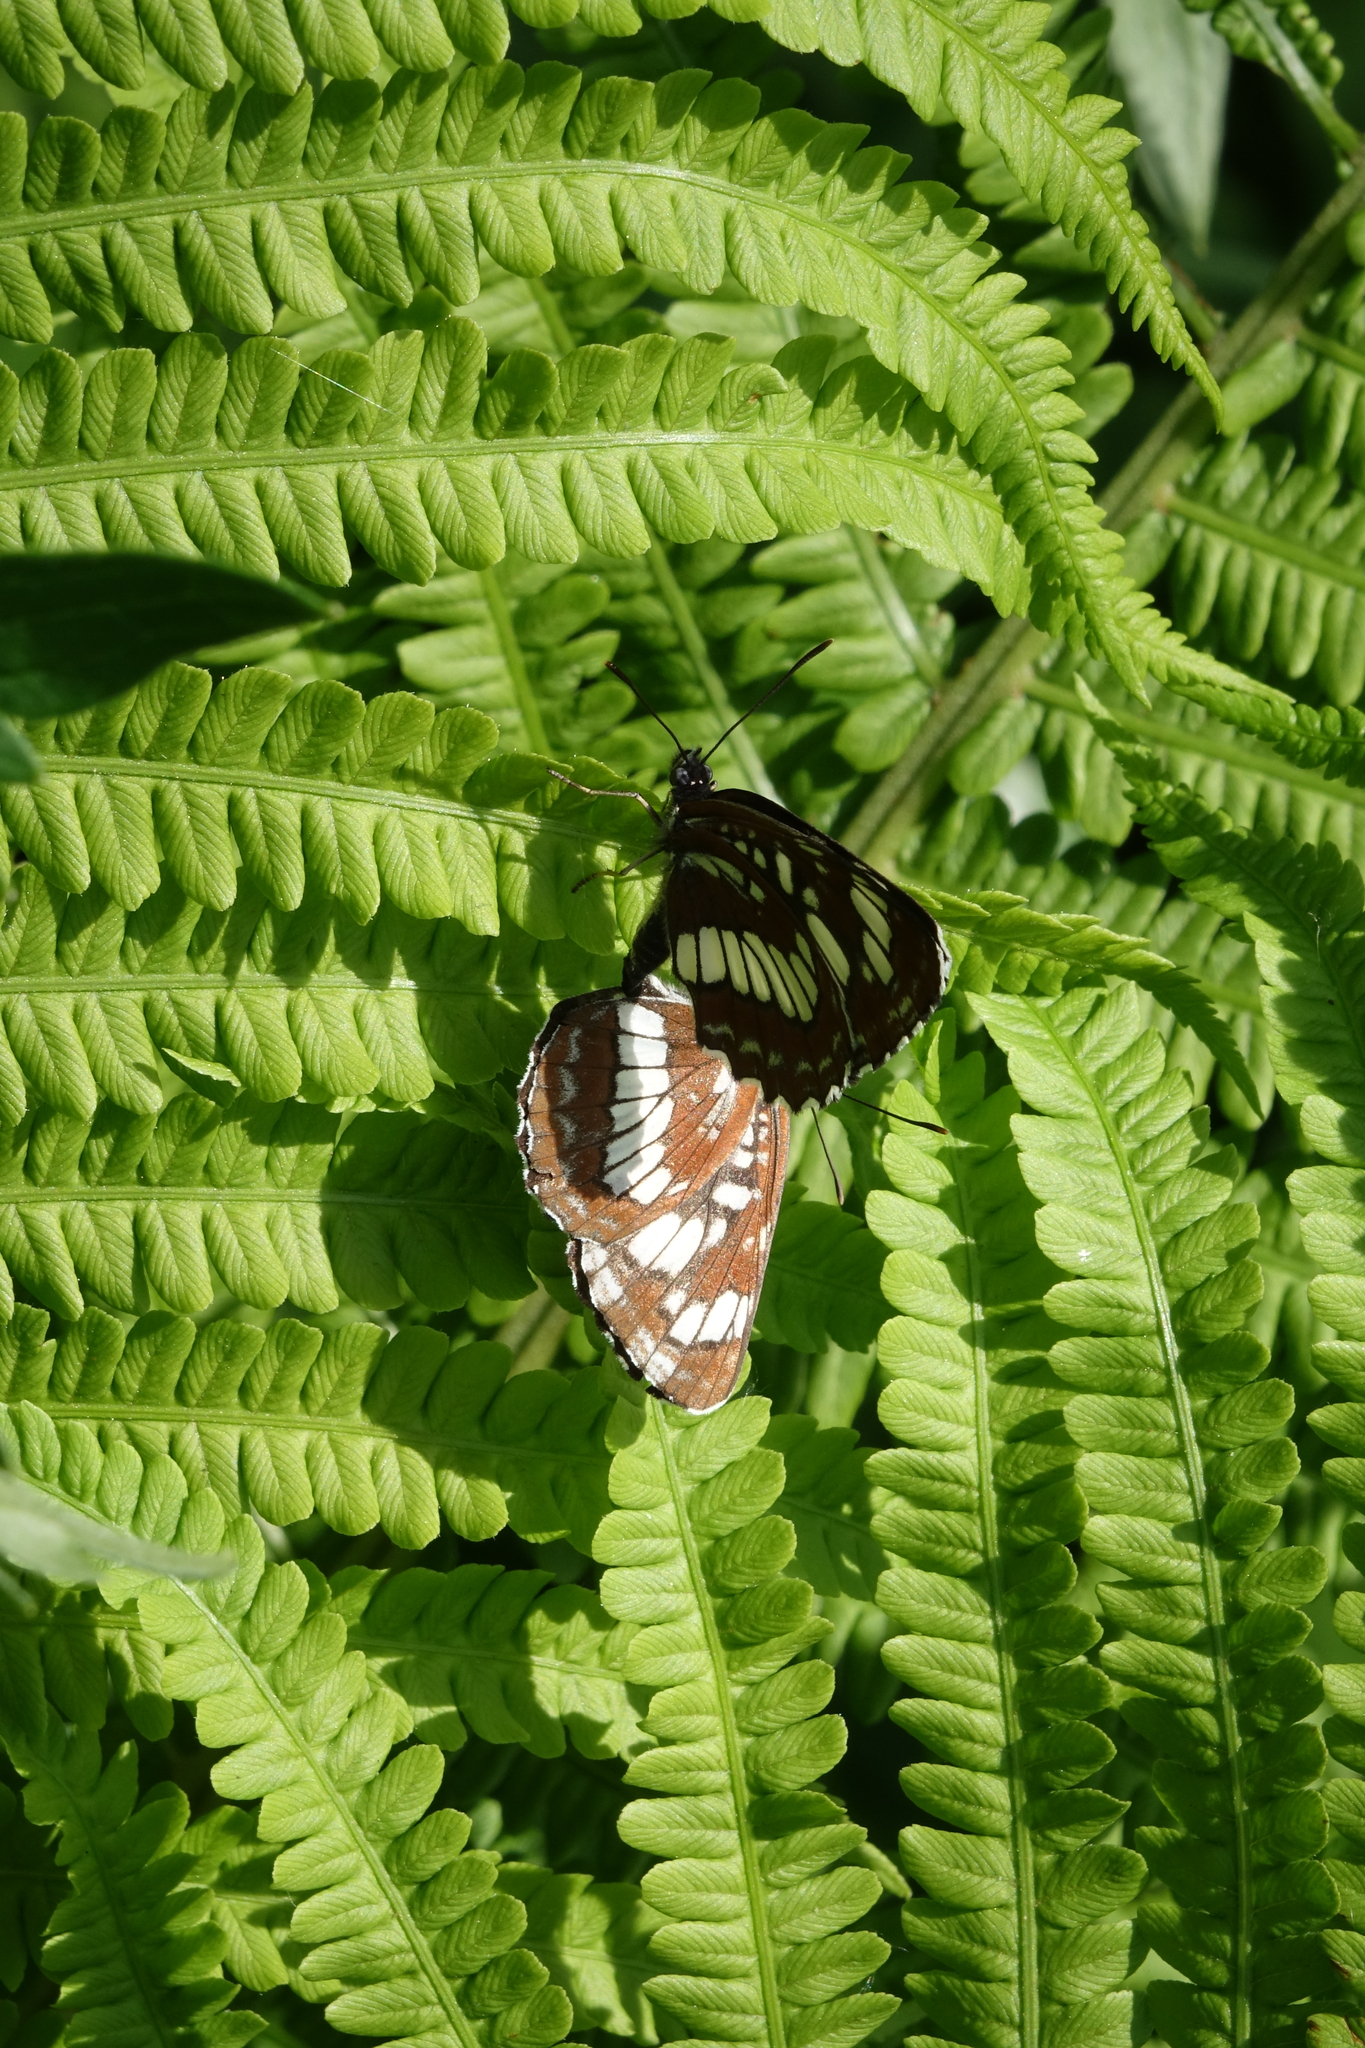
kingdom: Animalia
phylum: Arthropoda
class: Insecta
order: Lepidoptera
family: Nymphalidae
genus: Neptis
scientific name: Neptis rivularis
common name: Hungarian glider
